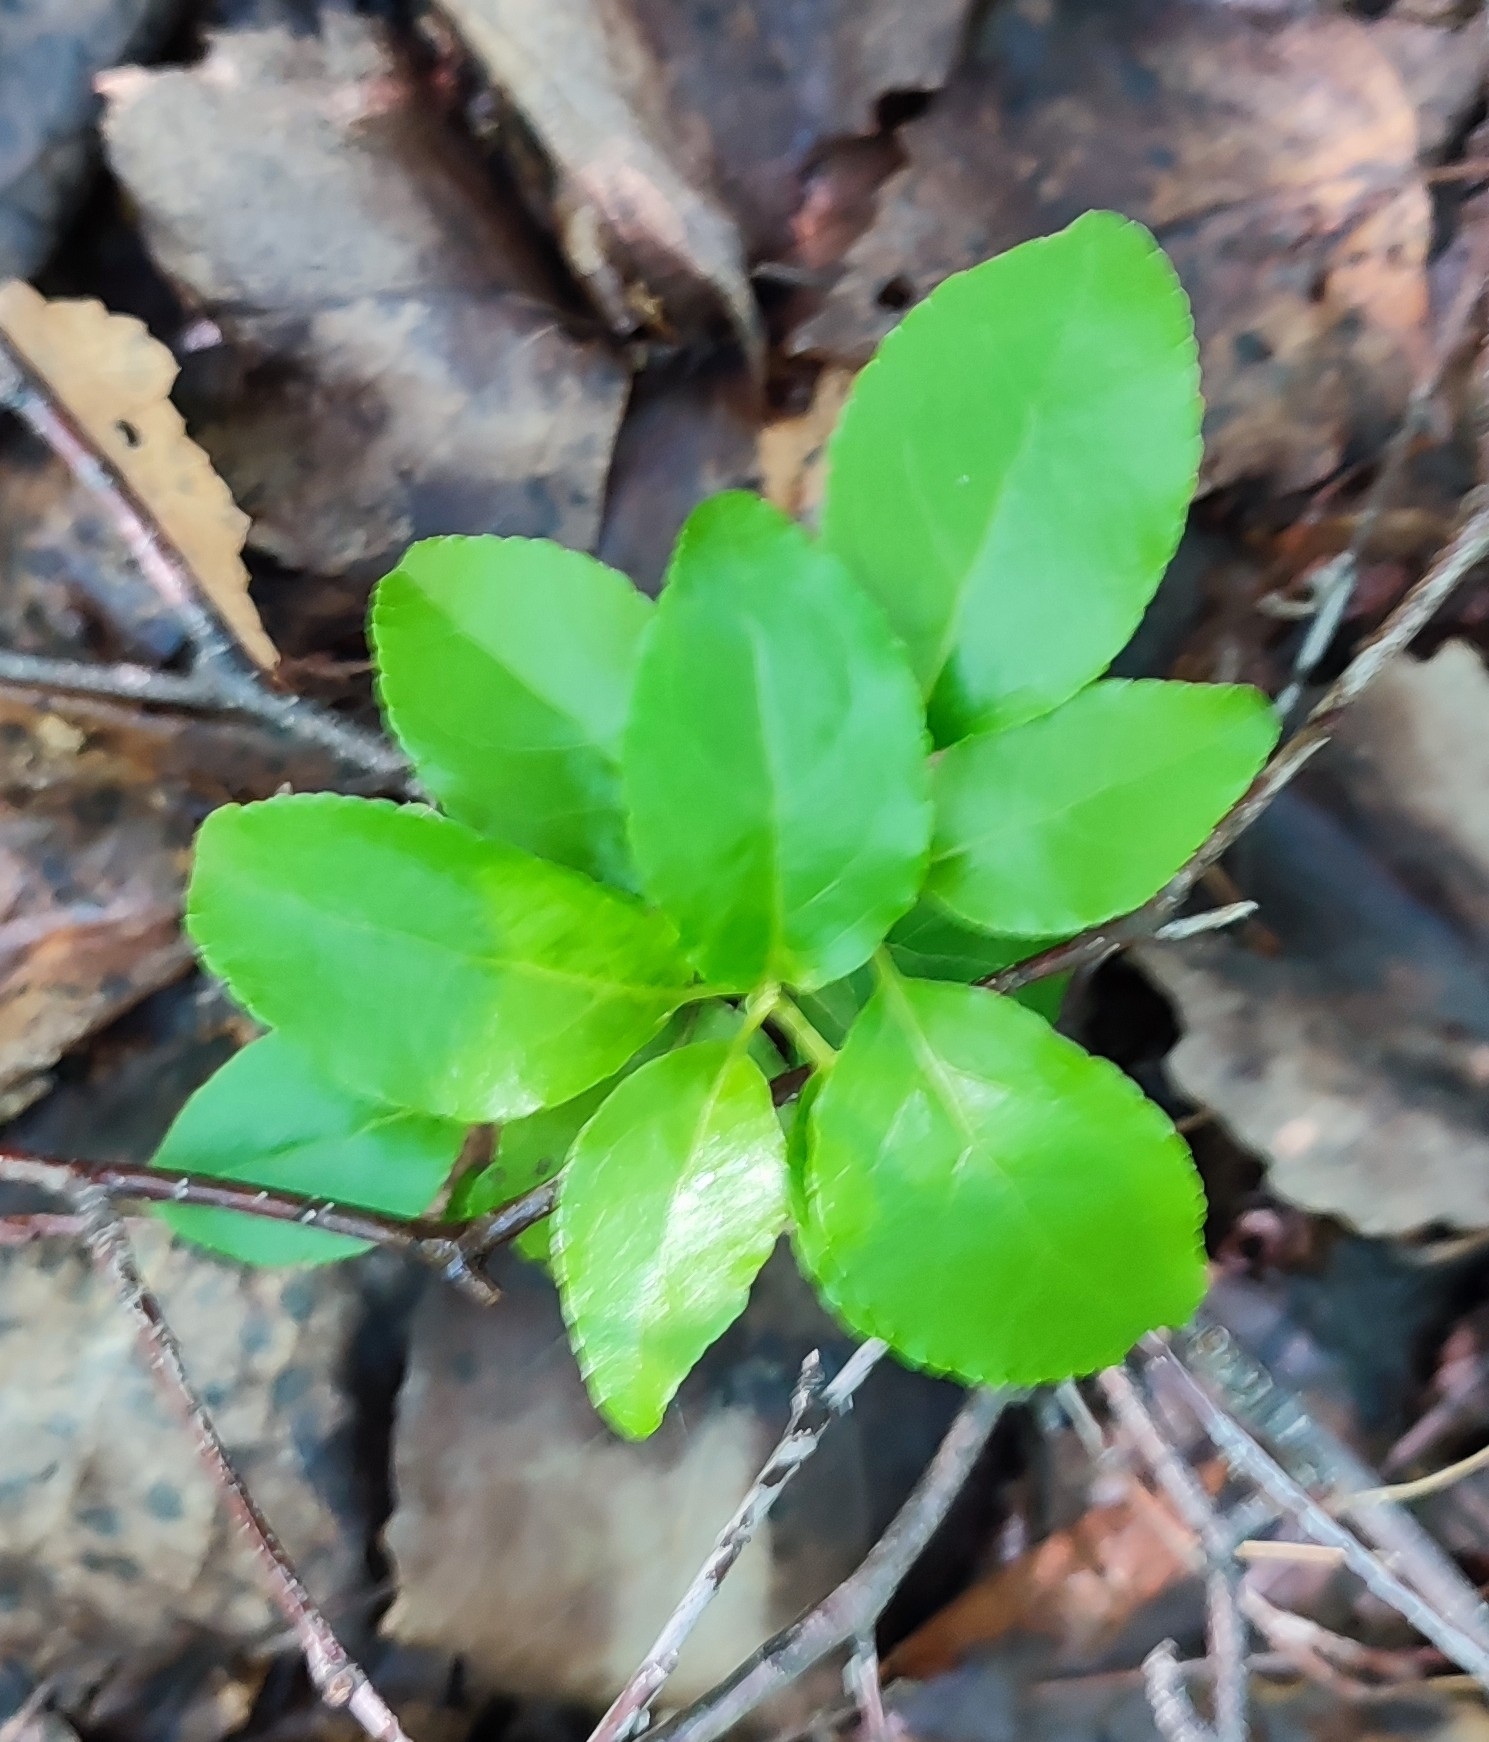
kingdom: Plantae
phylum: Tracheophyta
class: Magnoliopsida
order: Ericales
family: Ericaceae
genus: Orthilia
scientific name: Orthilia secunda
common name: One-sided orthilia
